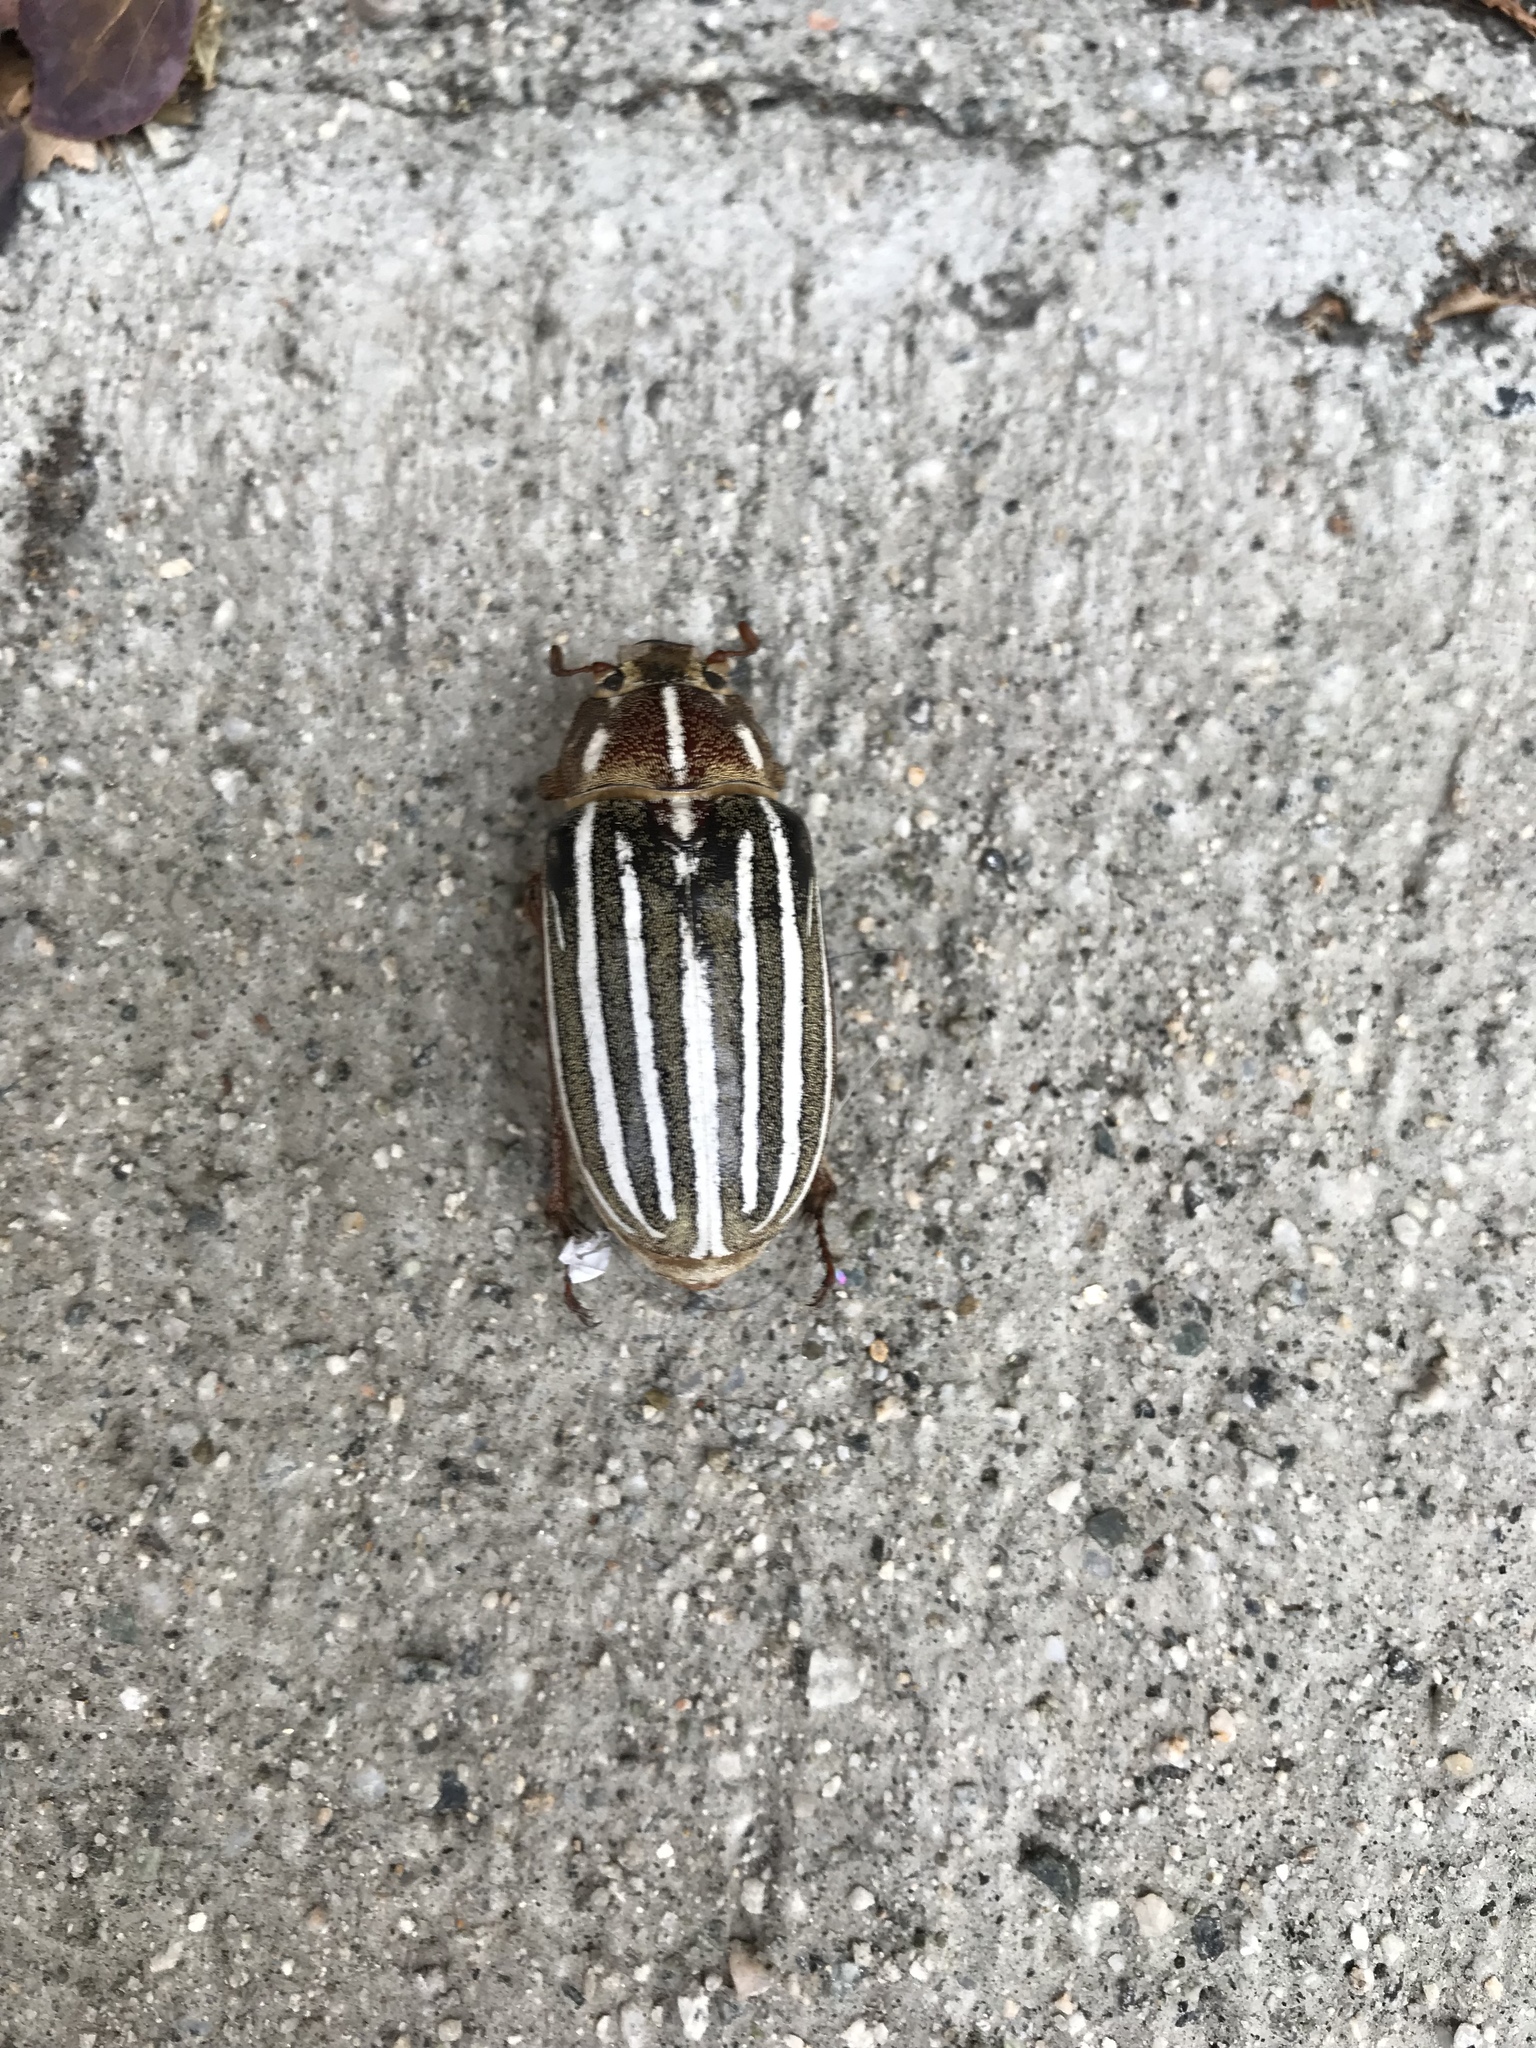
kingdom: Animalia
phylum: Arthropoda
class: Insecta
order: Coleoptera
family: Scarabaeidae
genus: Polyphylla
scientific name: Polyphylla decemlineata
